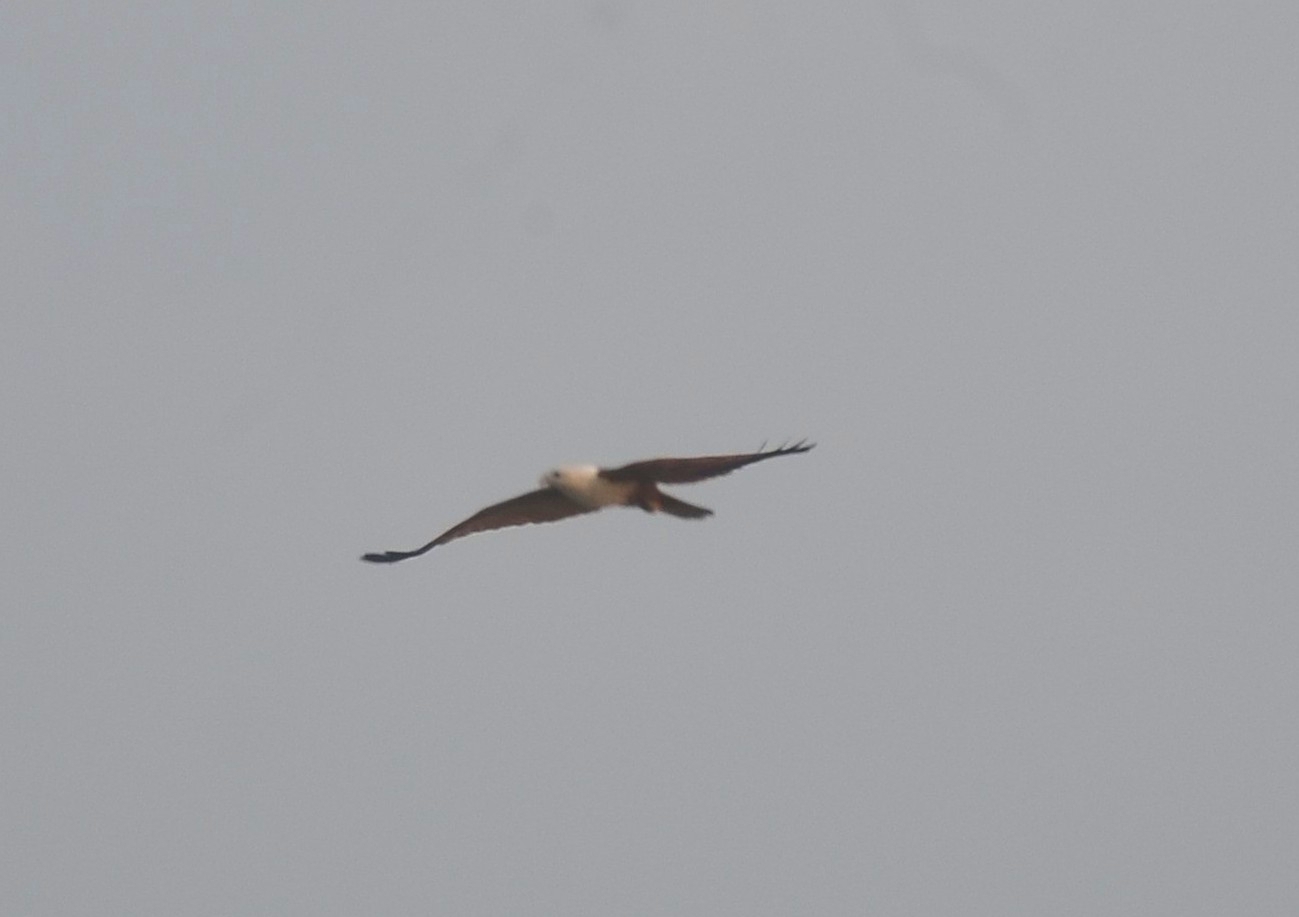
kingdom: Animalia
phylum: Chordata
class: Aves
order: Accipitriformes
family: Accipitridae
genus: Haliastur
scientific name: Haliastur indus
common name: Brahminy kite
